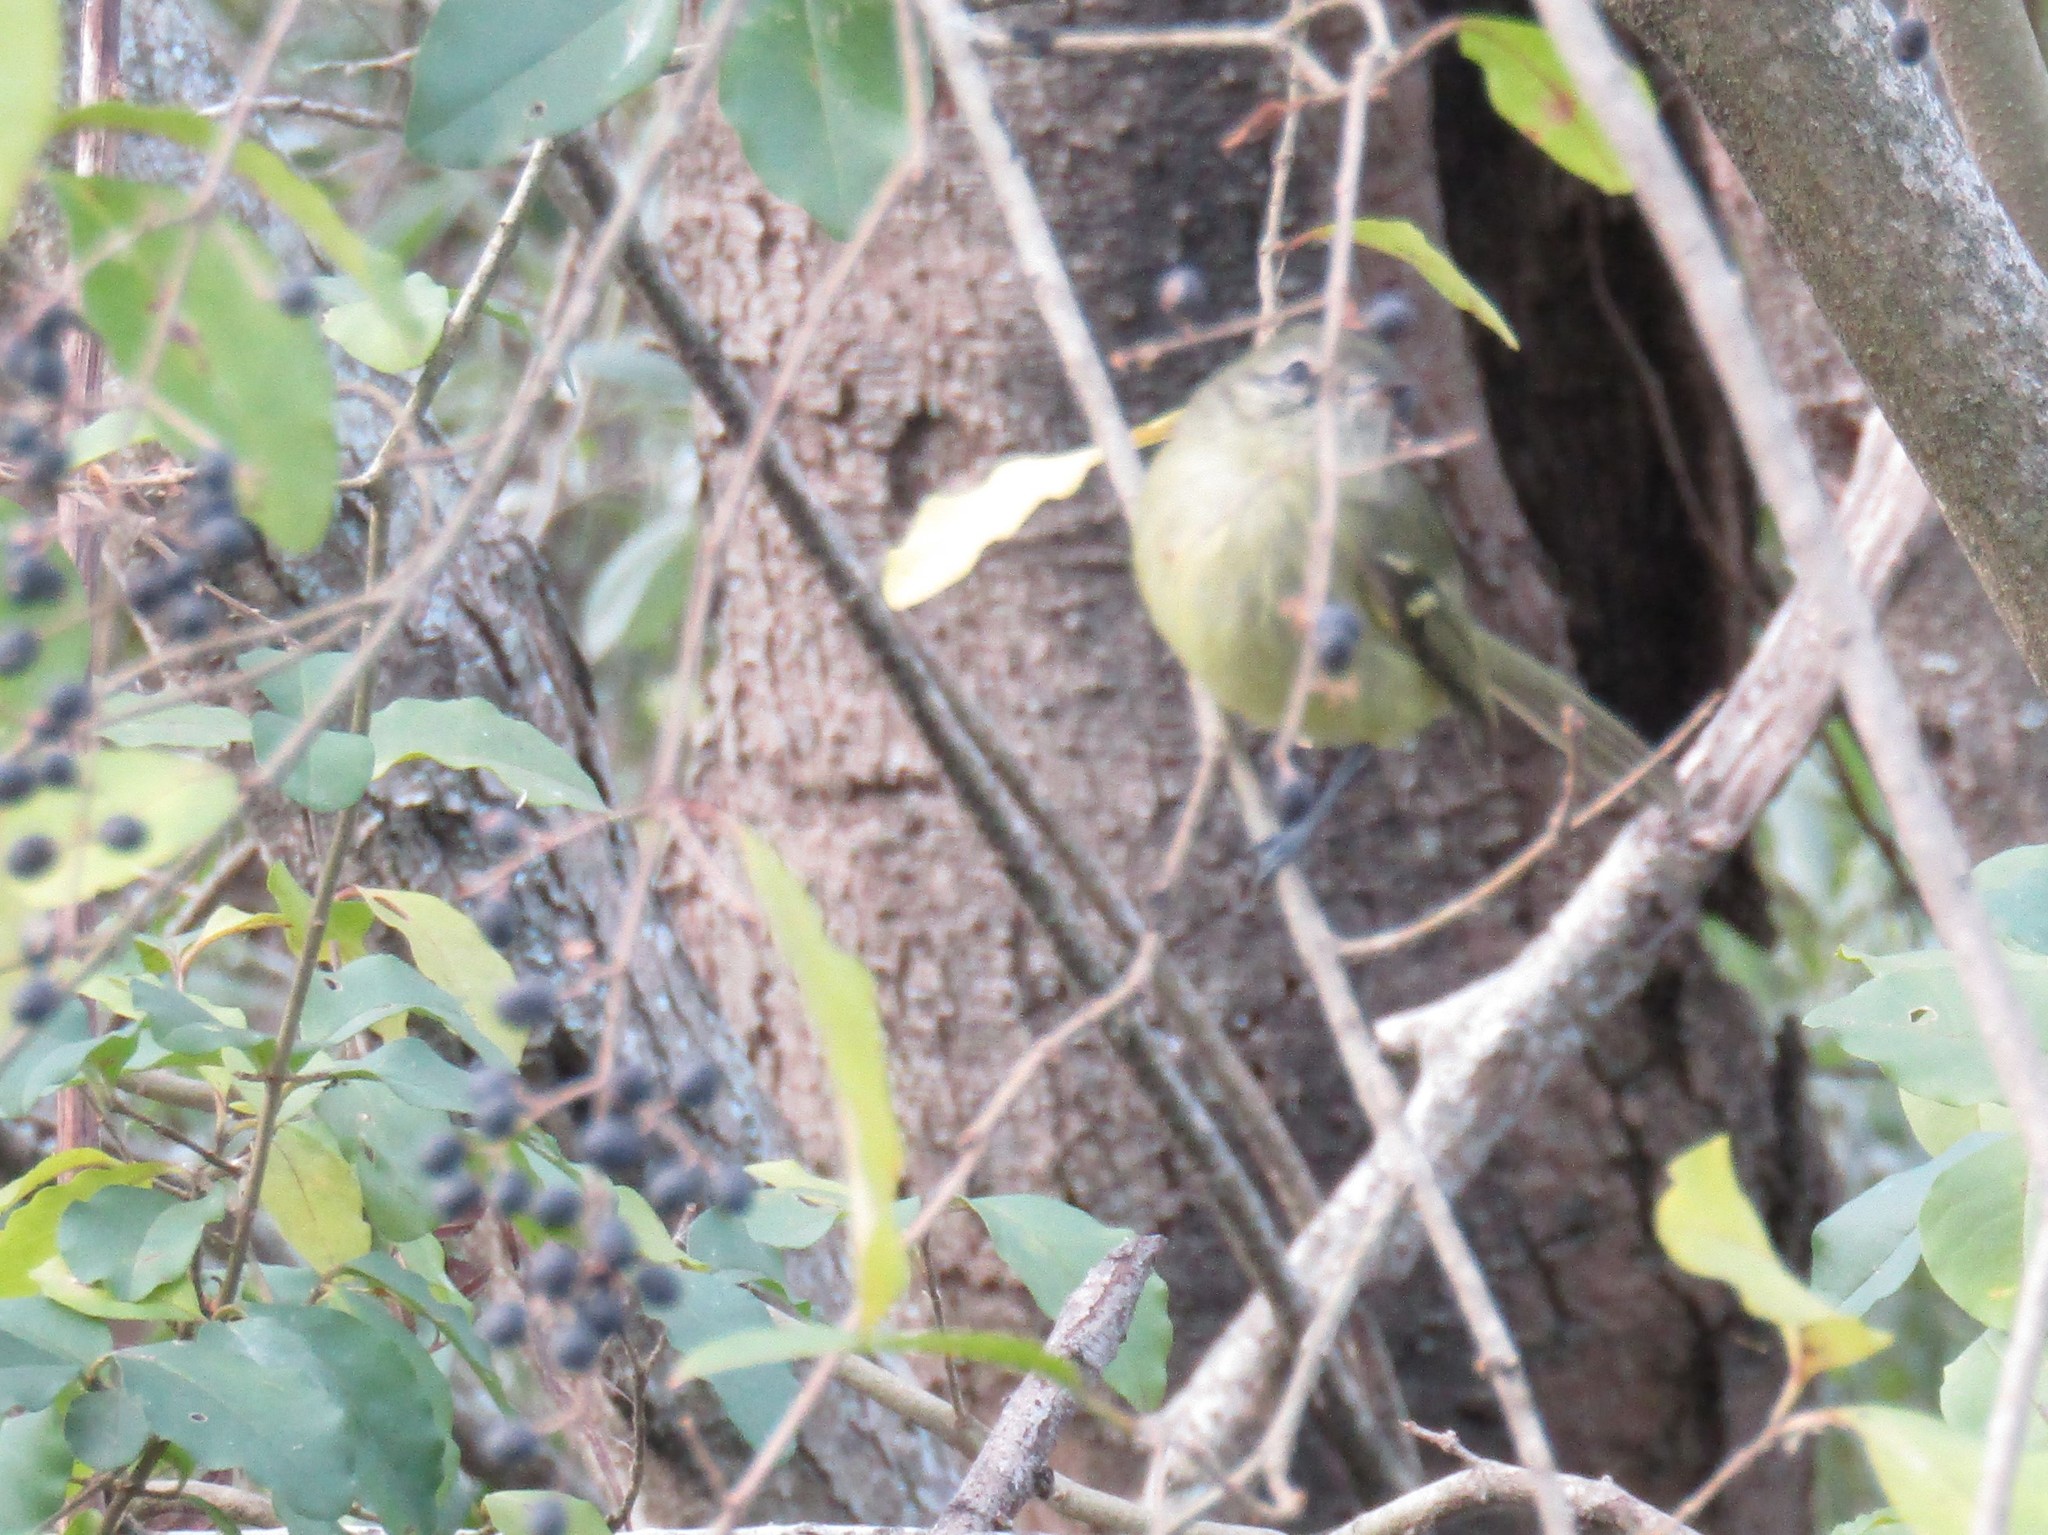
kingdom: Animalia
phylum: Chordata
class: Aves
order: Passeriformes
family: Tyrannidae
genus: Phylloscartes
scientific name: Phylloscartes ventralis
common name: Mottle-cheeked tyrannulet
